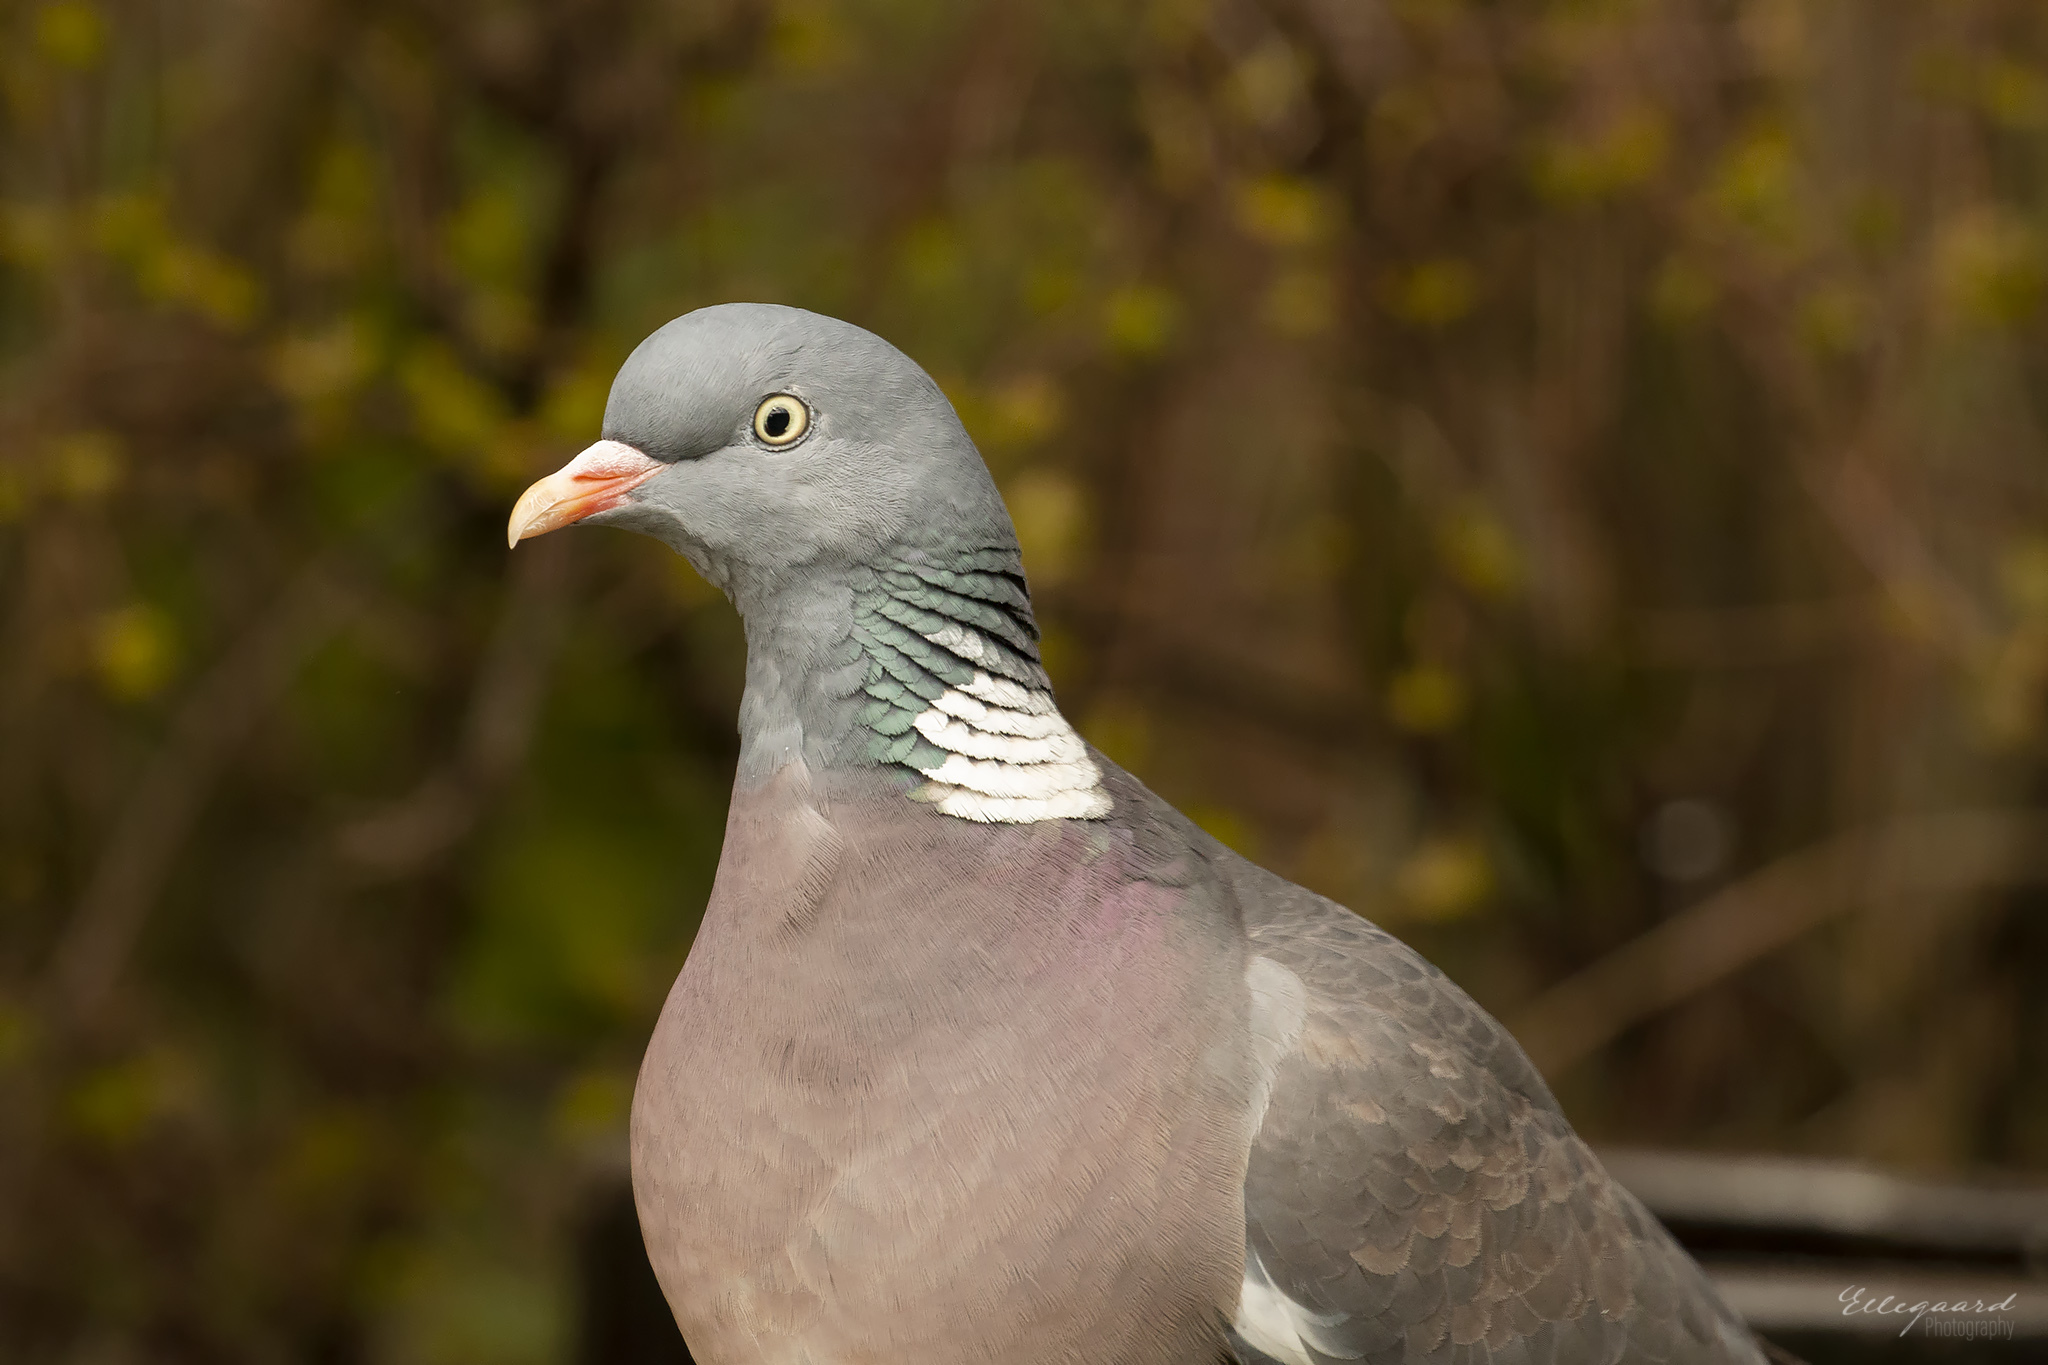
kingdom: Animalia
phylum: Chordata
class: Aves
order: Columbiformes
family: Columbidae
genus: Columba
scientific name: Columba palumbus
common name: Common wood pigeon
